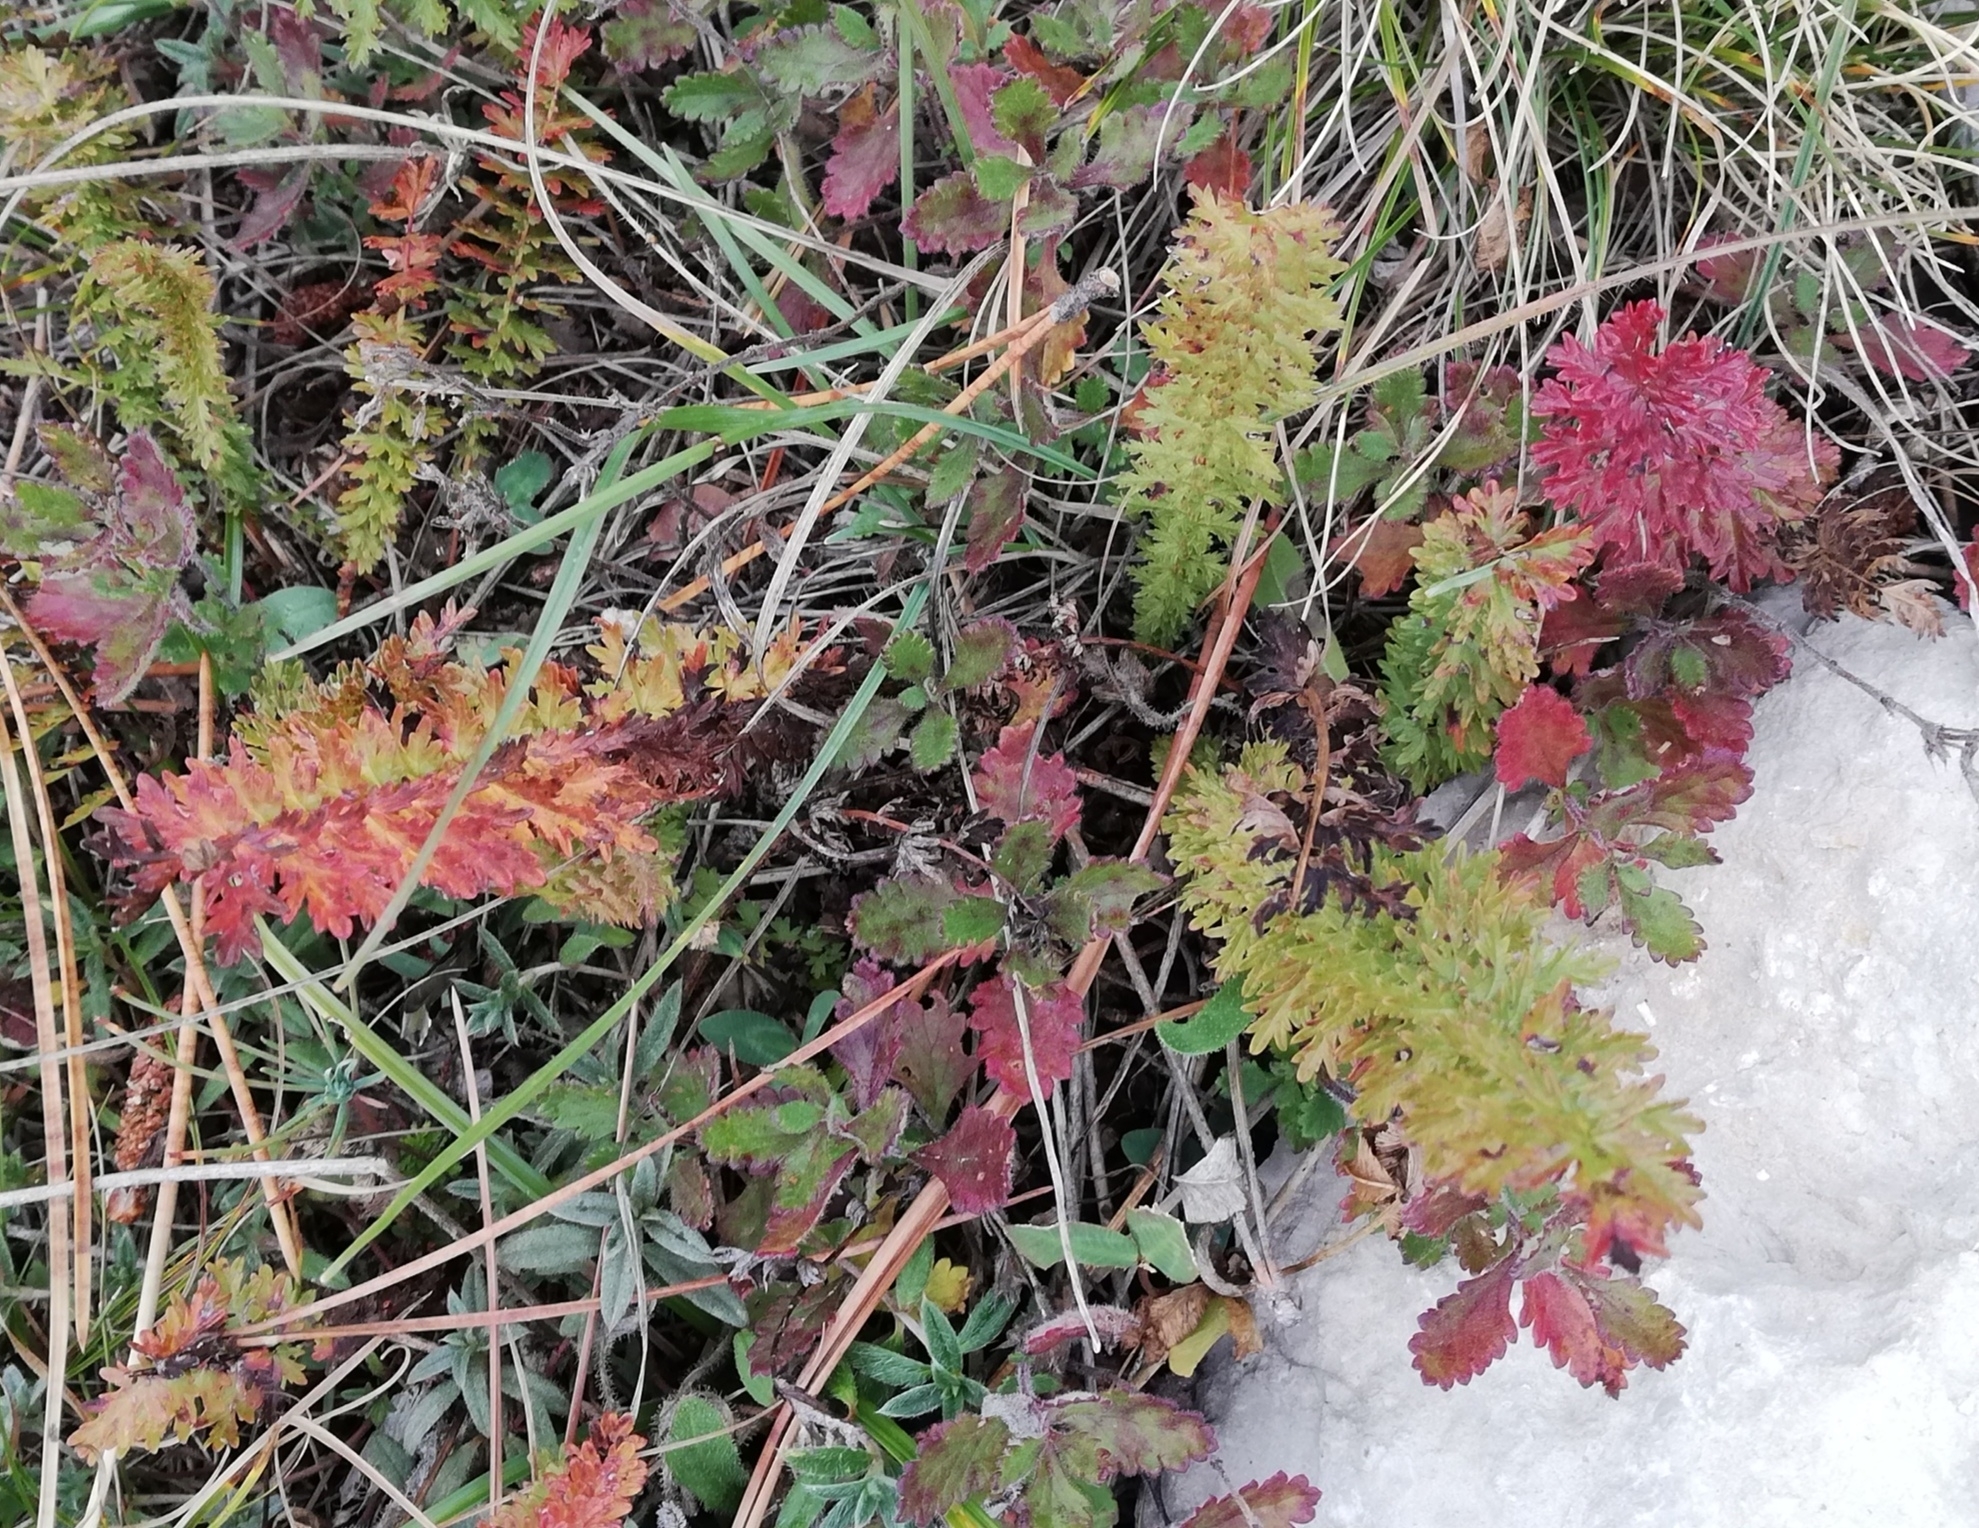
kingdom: Plantae
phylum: Tracheophyta
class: Magnoliopsida
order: Rosales
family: Rosaceae
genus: Filipendula
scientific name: Filipendula vulgaris
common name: Dropwort
